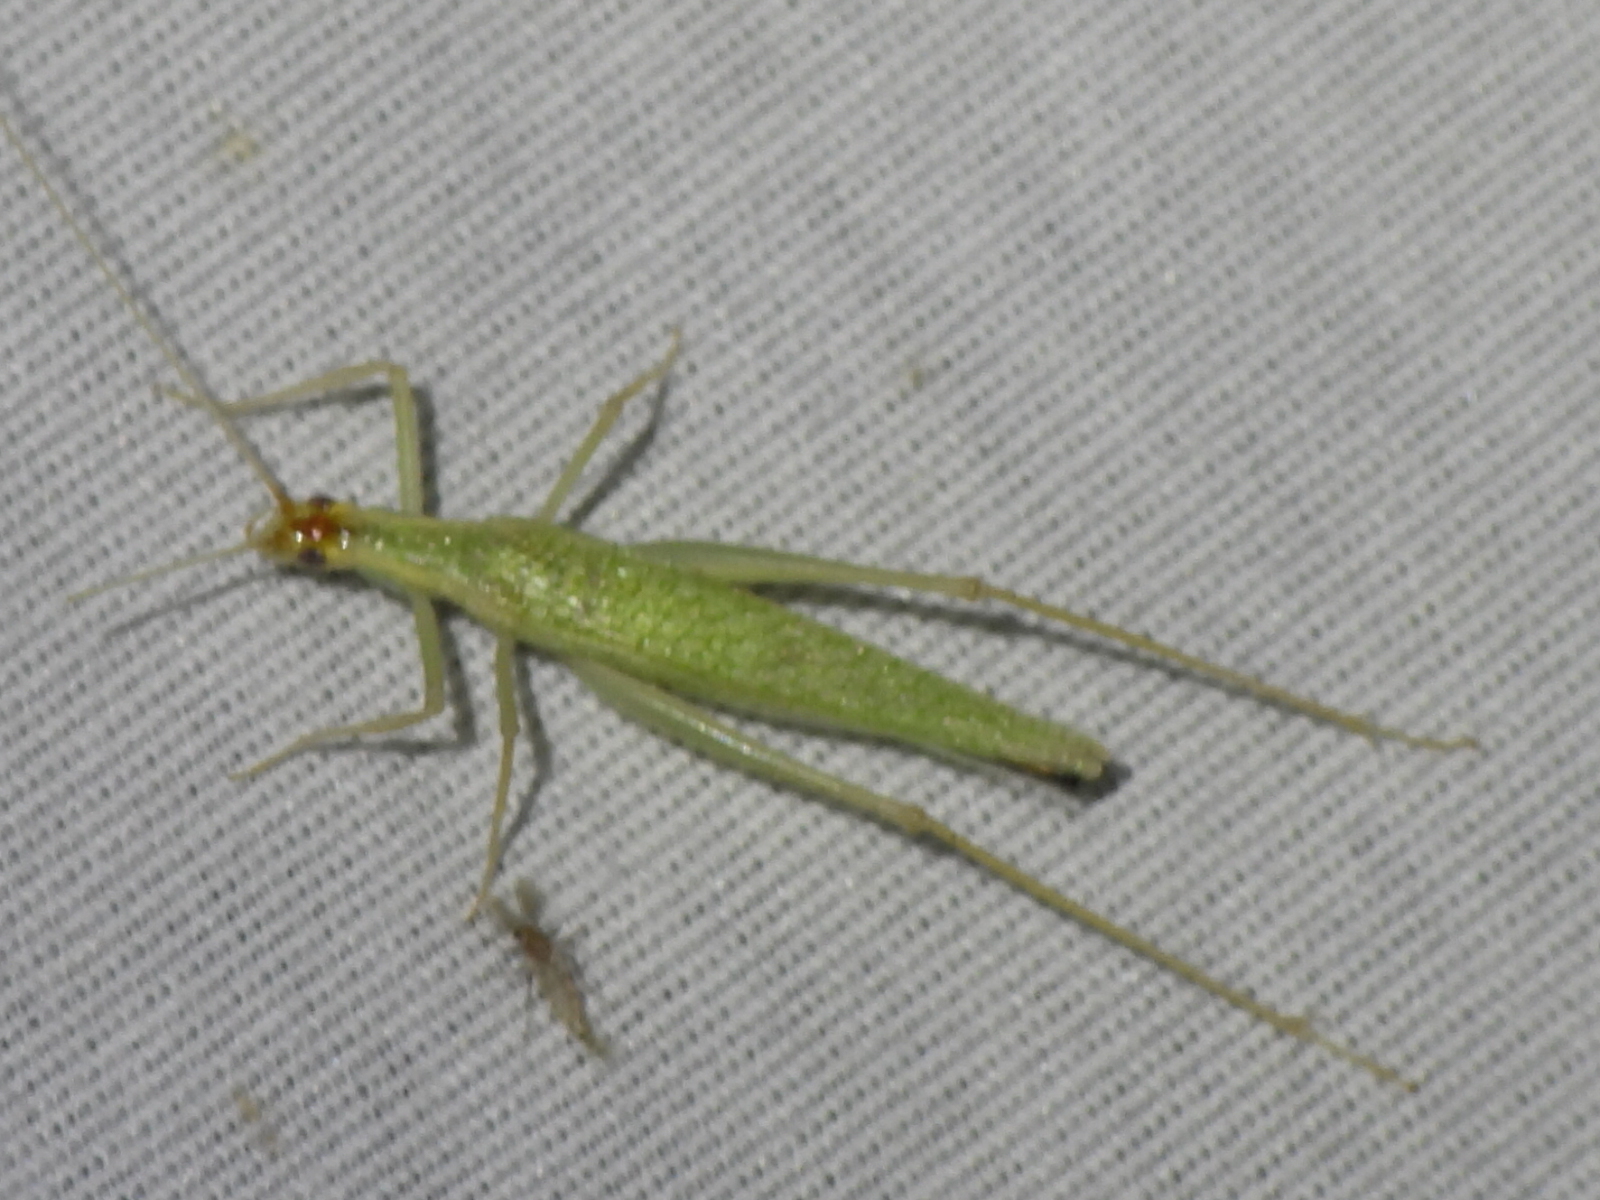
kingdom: Animalia
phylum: Arthropoda
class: Insecta
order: Orthoptera
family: Gryllidae
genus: Oecanthus
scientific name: Oecanthus niveus
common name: Narrow-winged tree cricket
